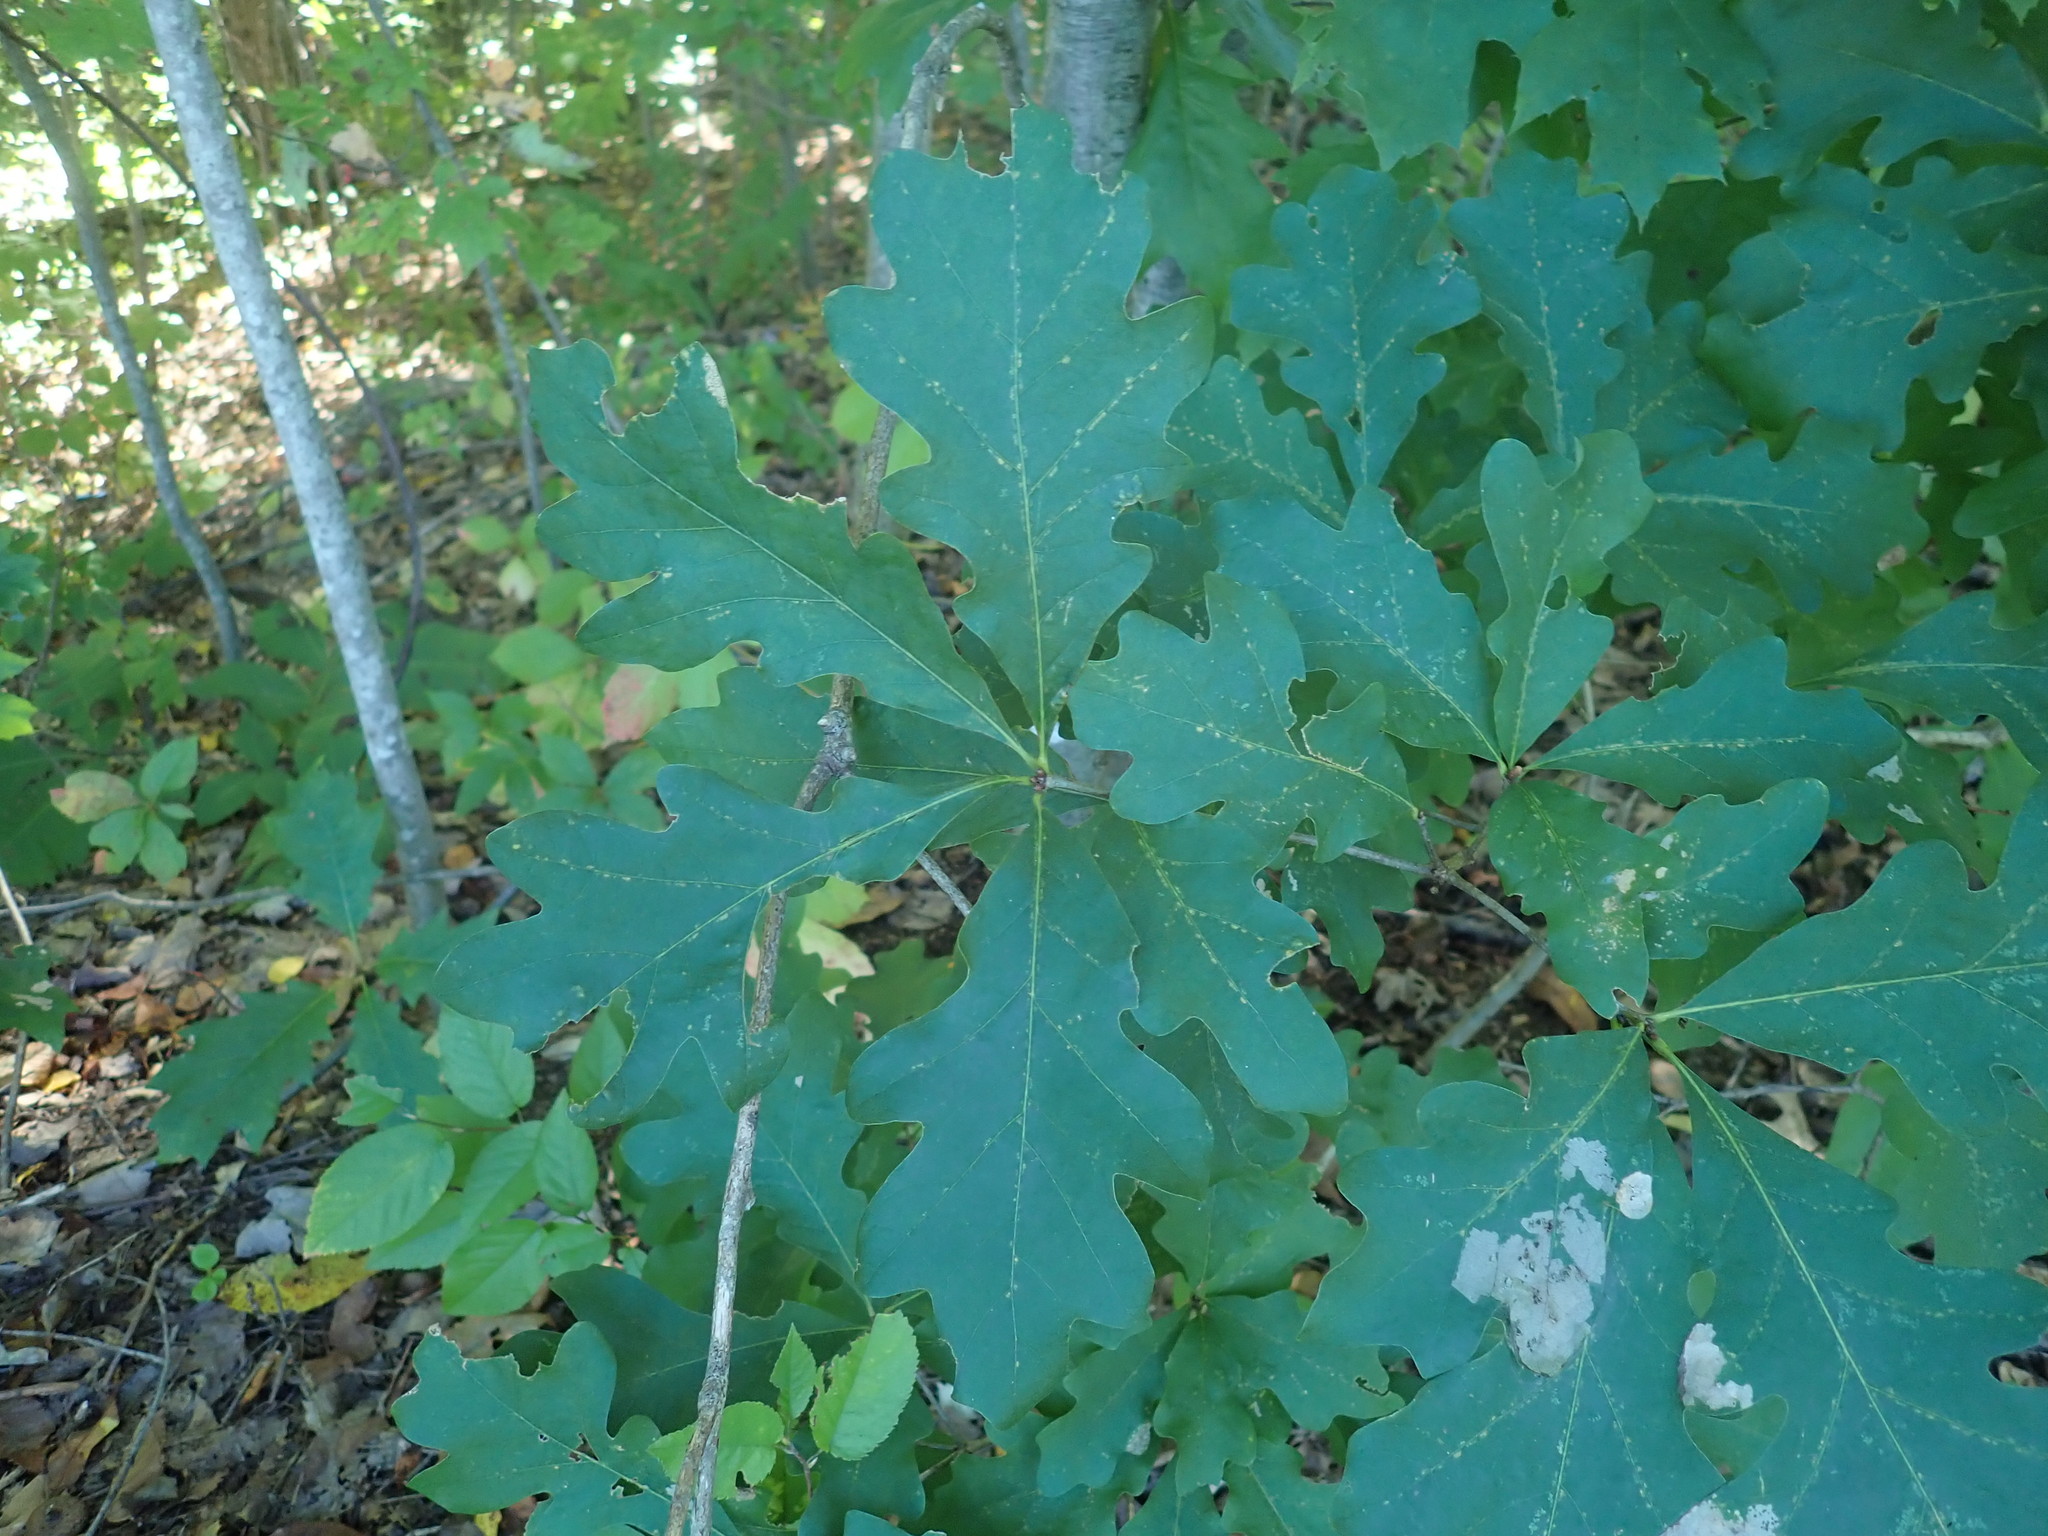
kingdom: Plantae
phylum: Tracheophyta
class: Magnoliopsida
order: Fagales
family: Fagaceae
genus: Quercus
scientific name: Quercus alba
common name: White oak
